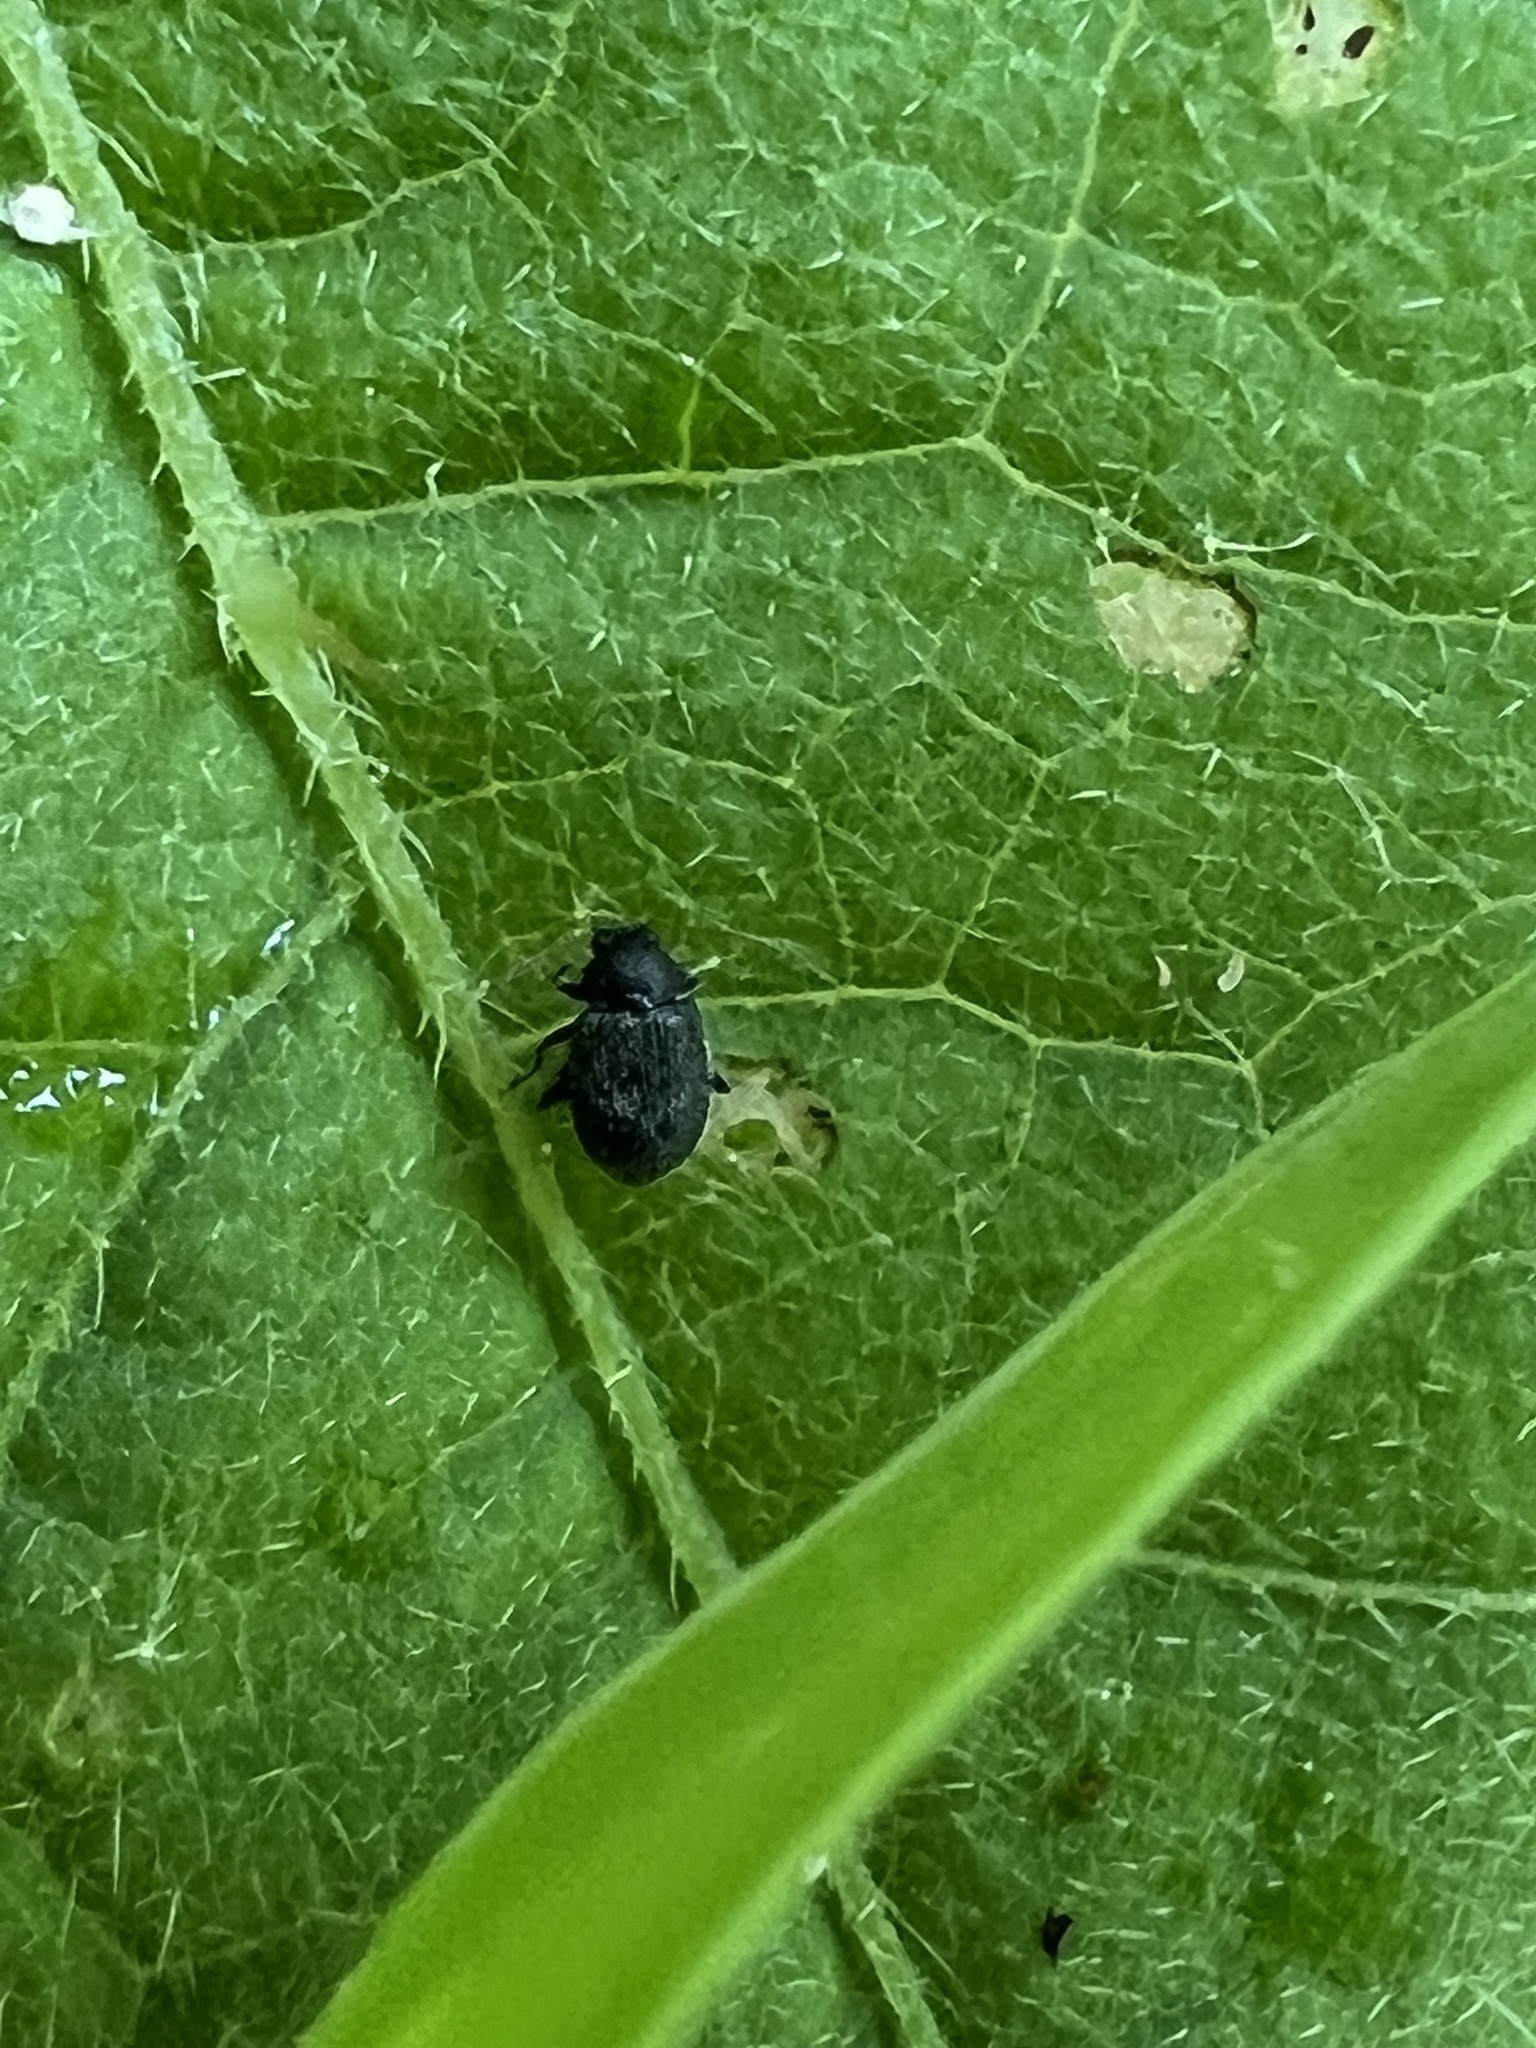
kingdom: Animalia
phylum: Arthropoda
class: Insecta
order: Coleoptera
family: Chrysomelidae
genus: Epitrix
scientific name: Epitrix fuscula
